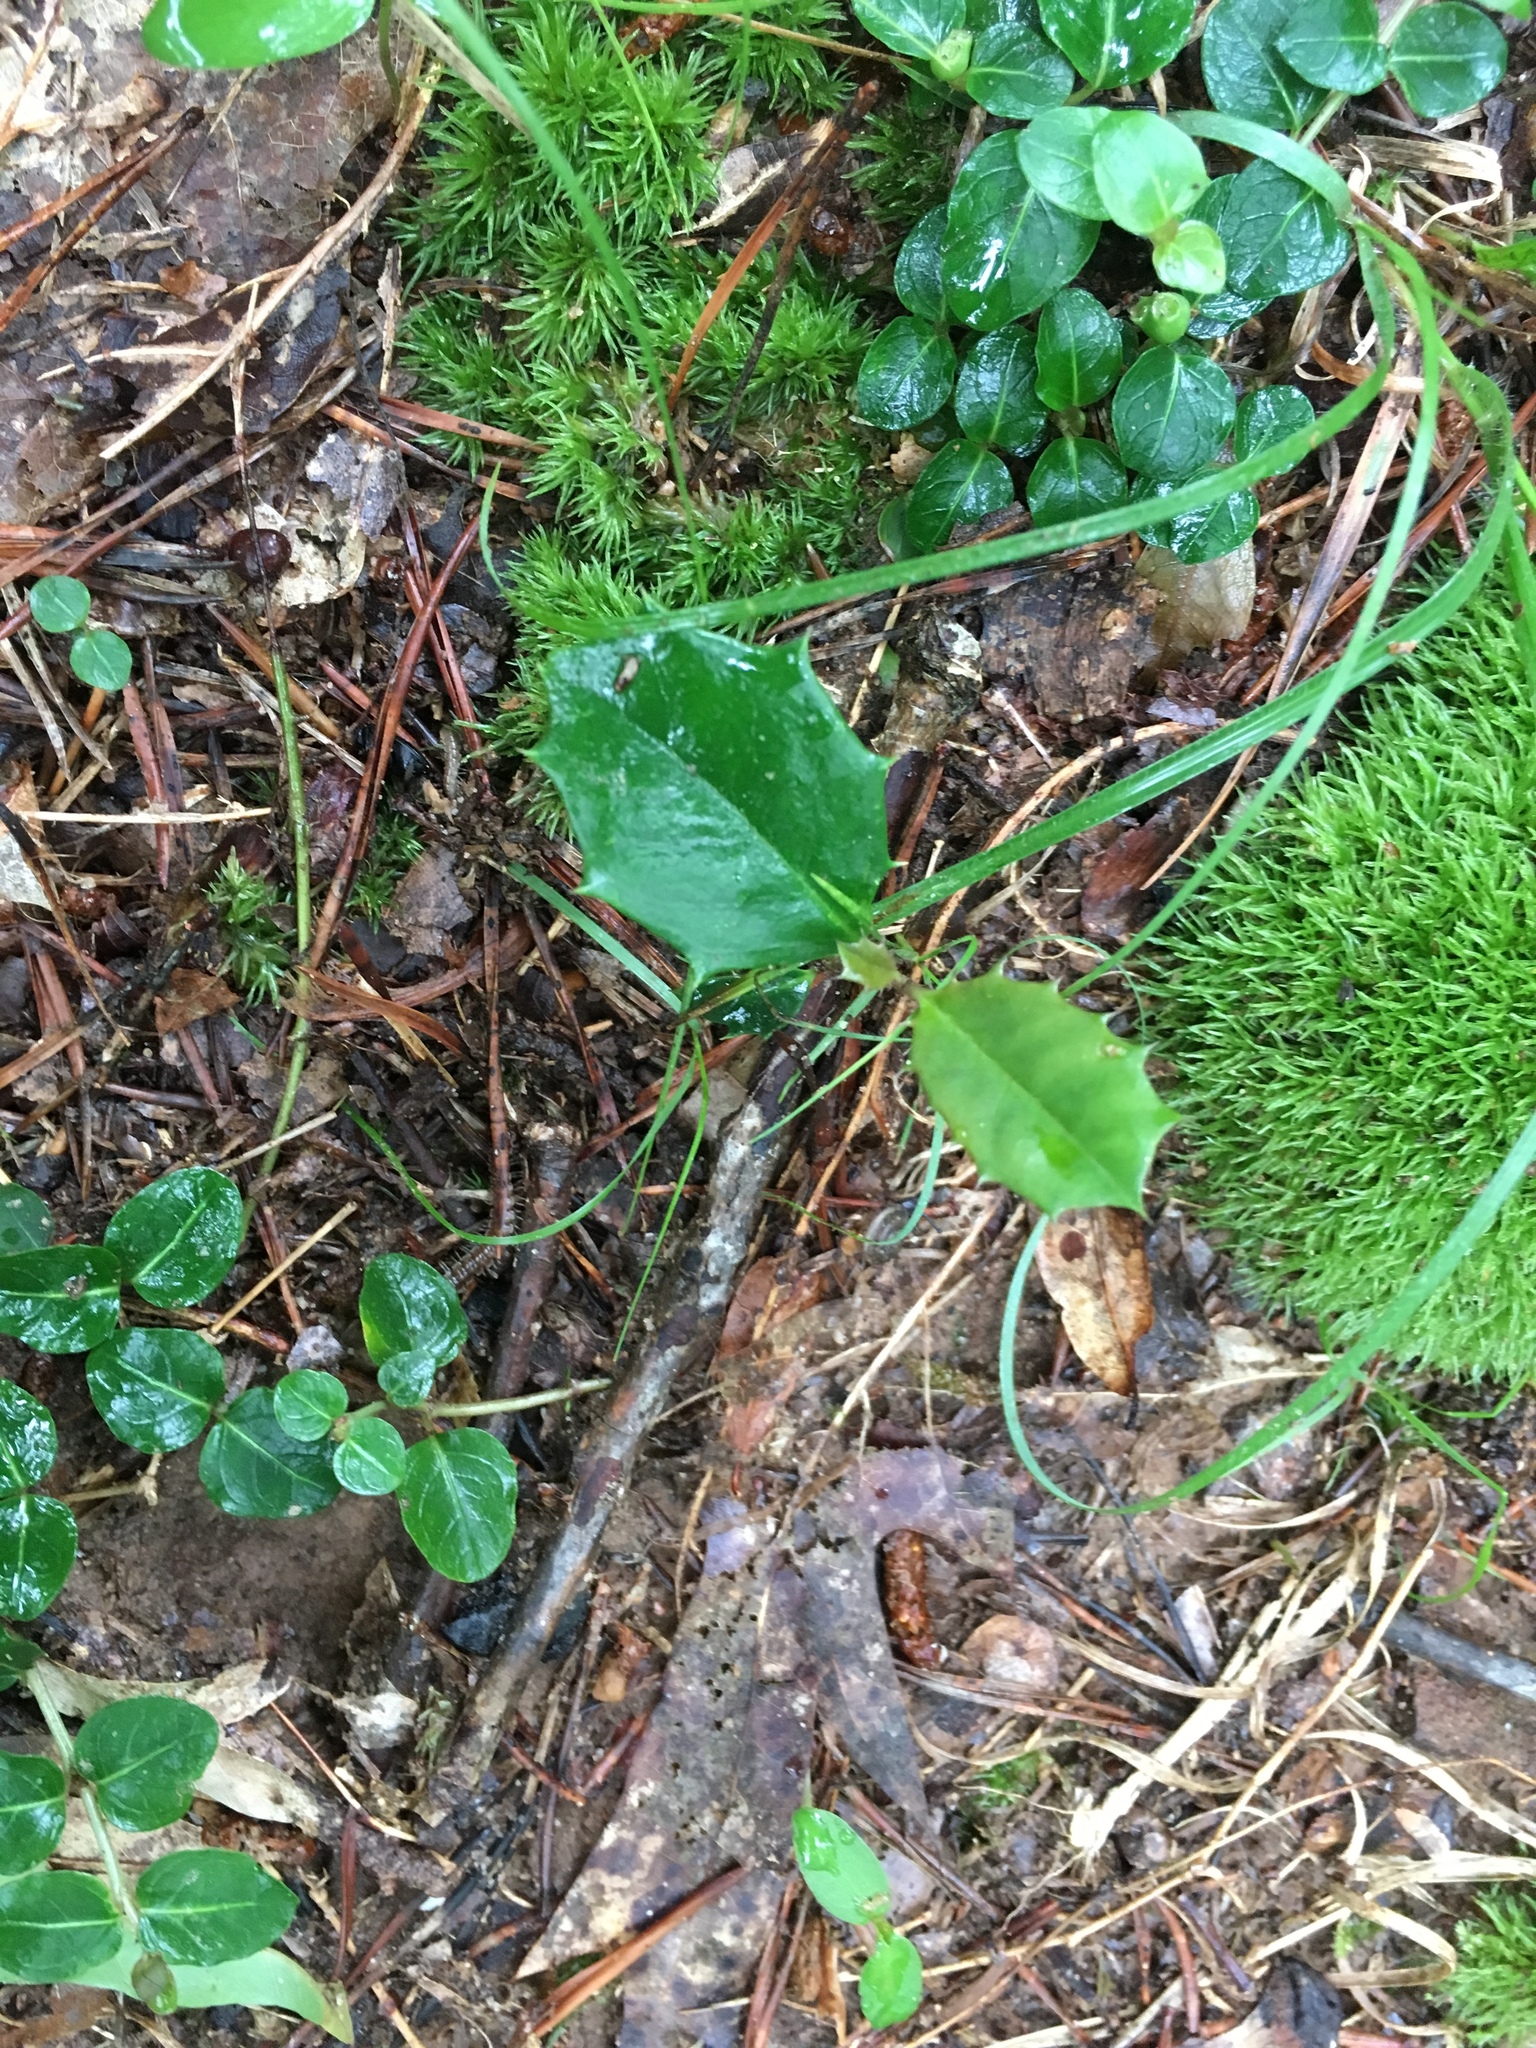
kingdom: Plantae
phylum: Tracheophyta
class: Magnoliopsida
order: Aquifoliales
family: Aquifoliaceae
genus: Ilex
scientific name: Ilex opaca
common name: American holly
